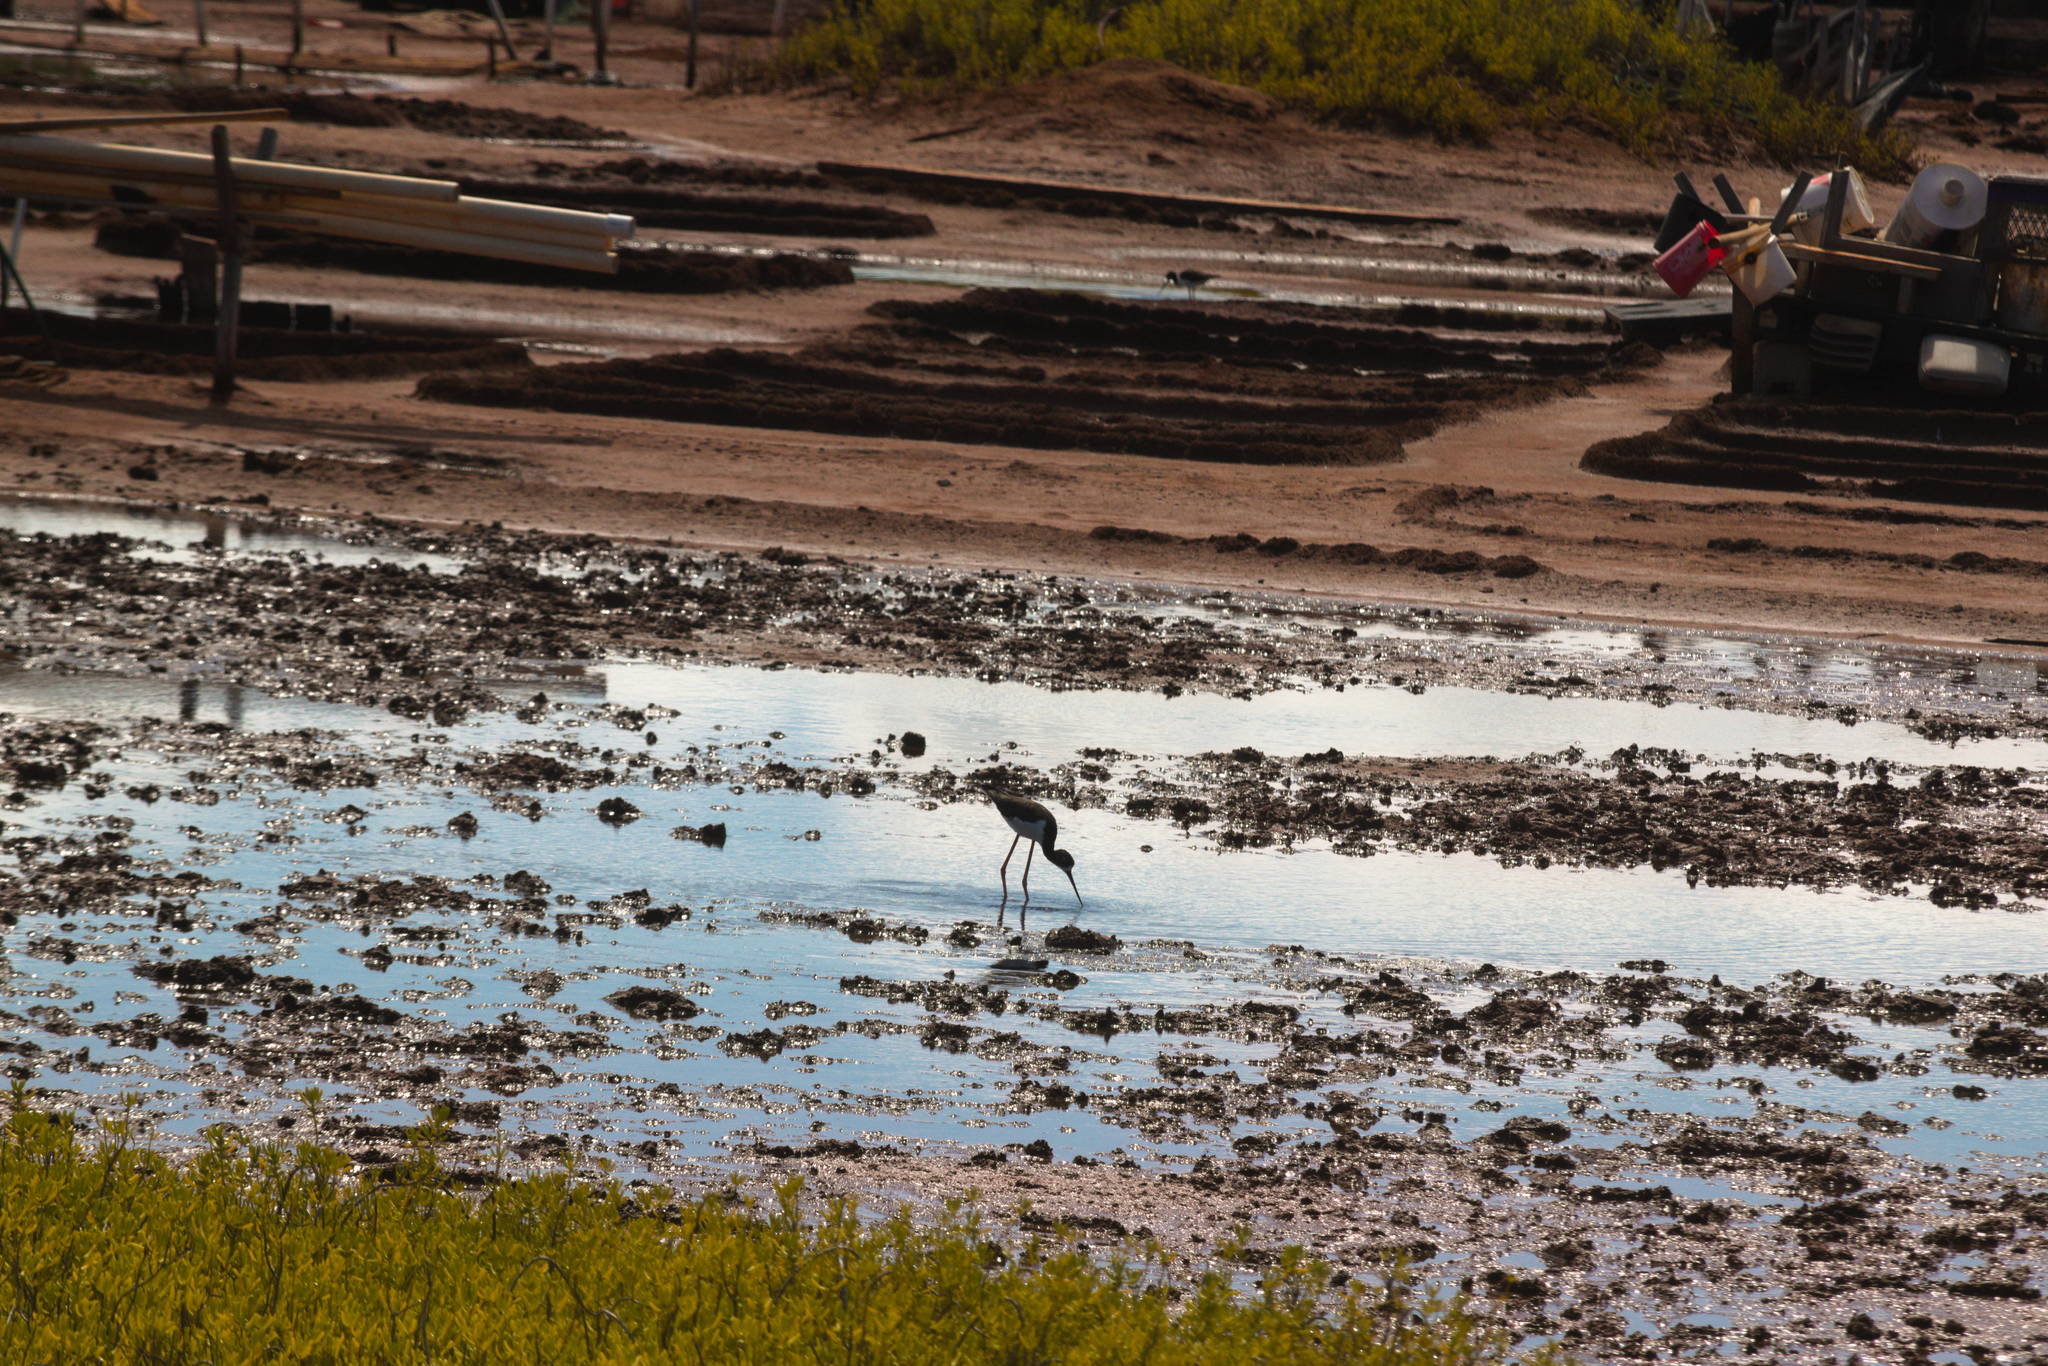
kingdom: Animalia
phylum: Chordata
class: Aves
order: Charadriiformes
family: Recurvirostridae
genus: Himantopus
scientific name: Himantopus mexicanus
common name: Black-necked stilt
